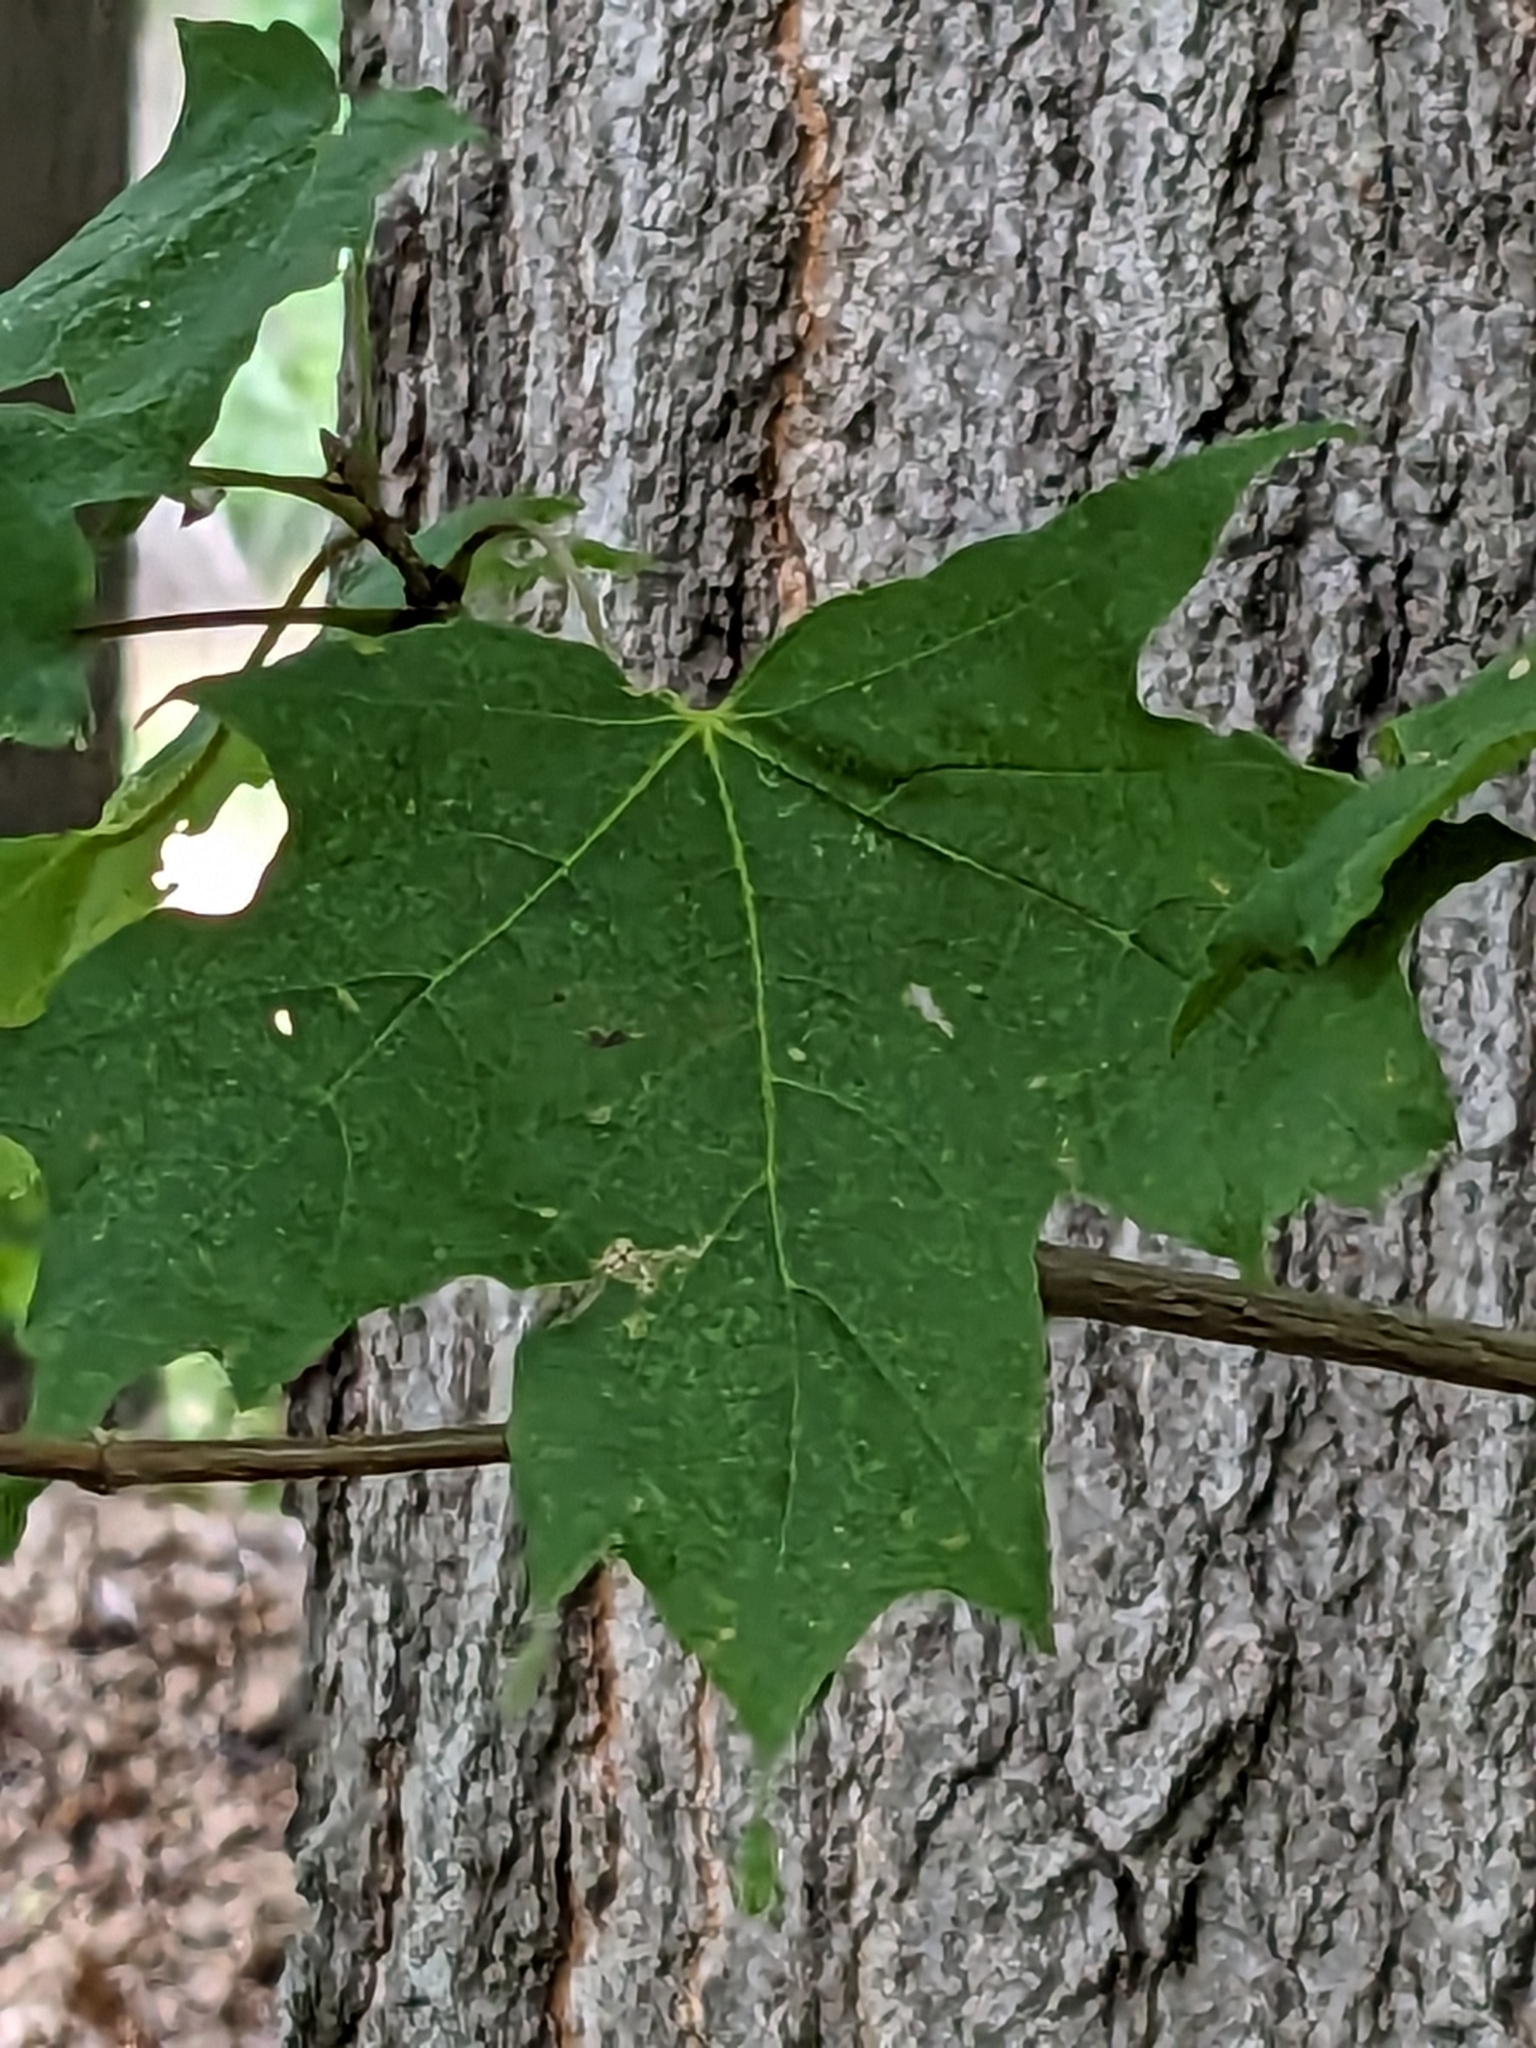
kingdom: Plantae
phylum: Tracheophyta
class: Magnoliopsida
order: Sapindales
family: Sapindaceae
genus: Acer
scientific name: Acer saccharum
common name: Sugar maple
